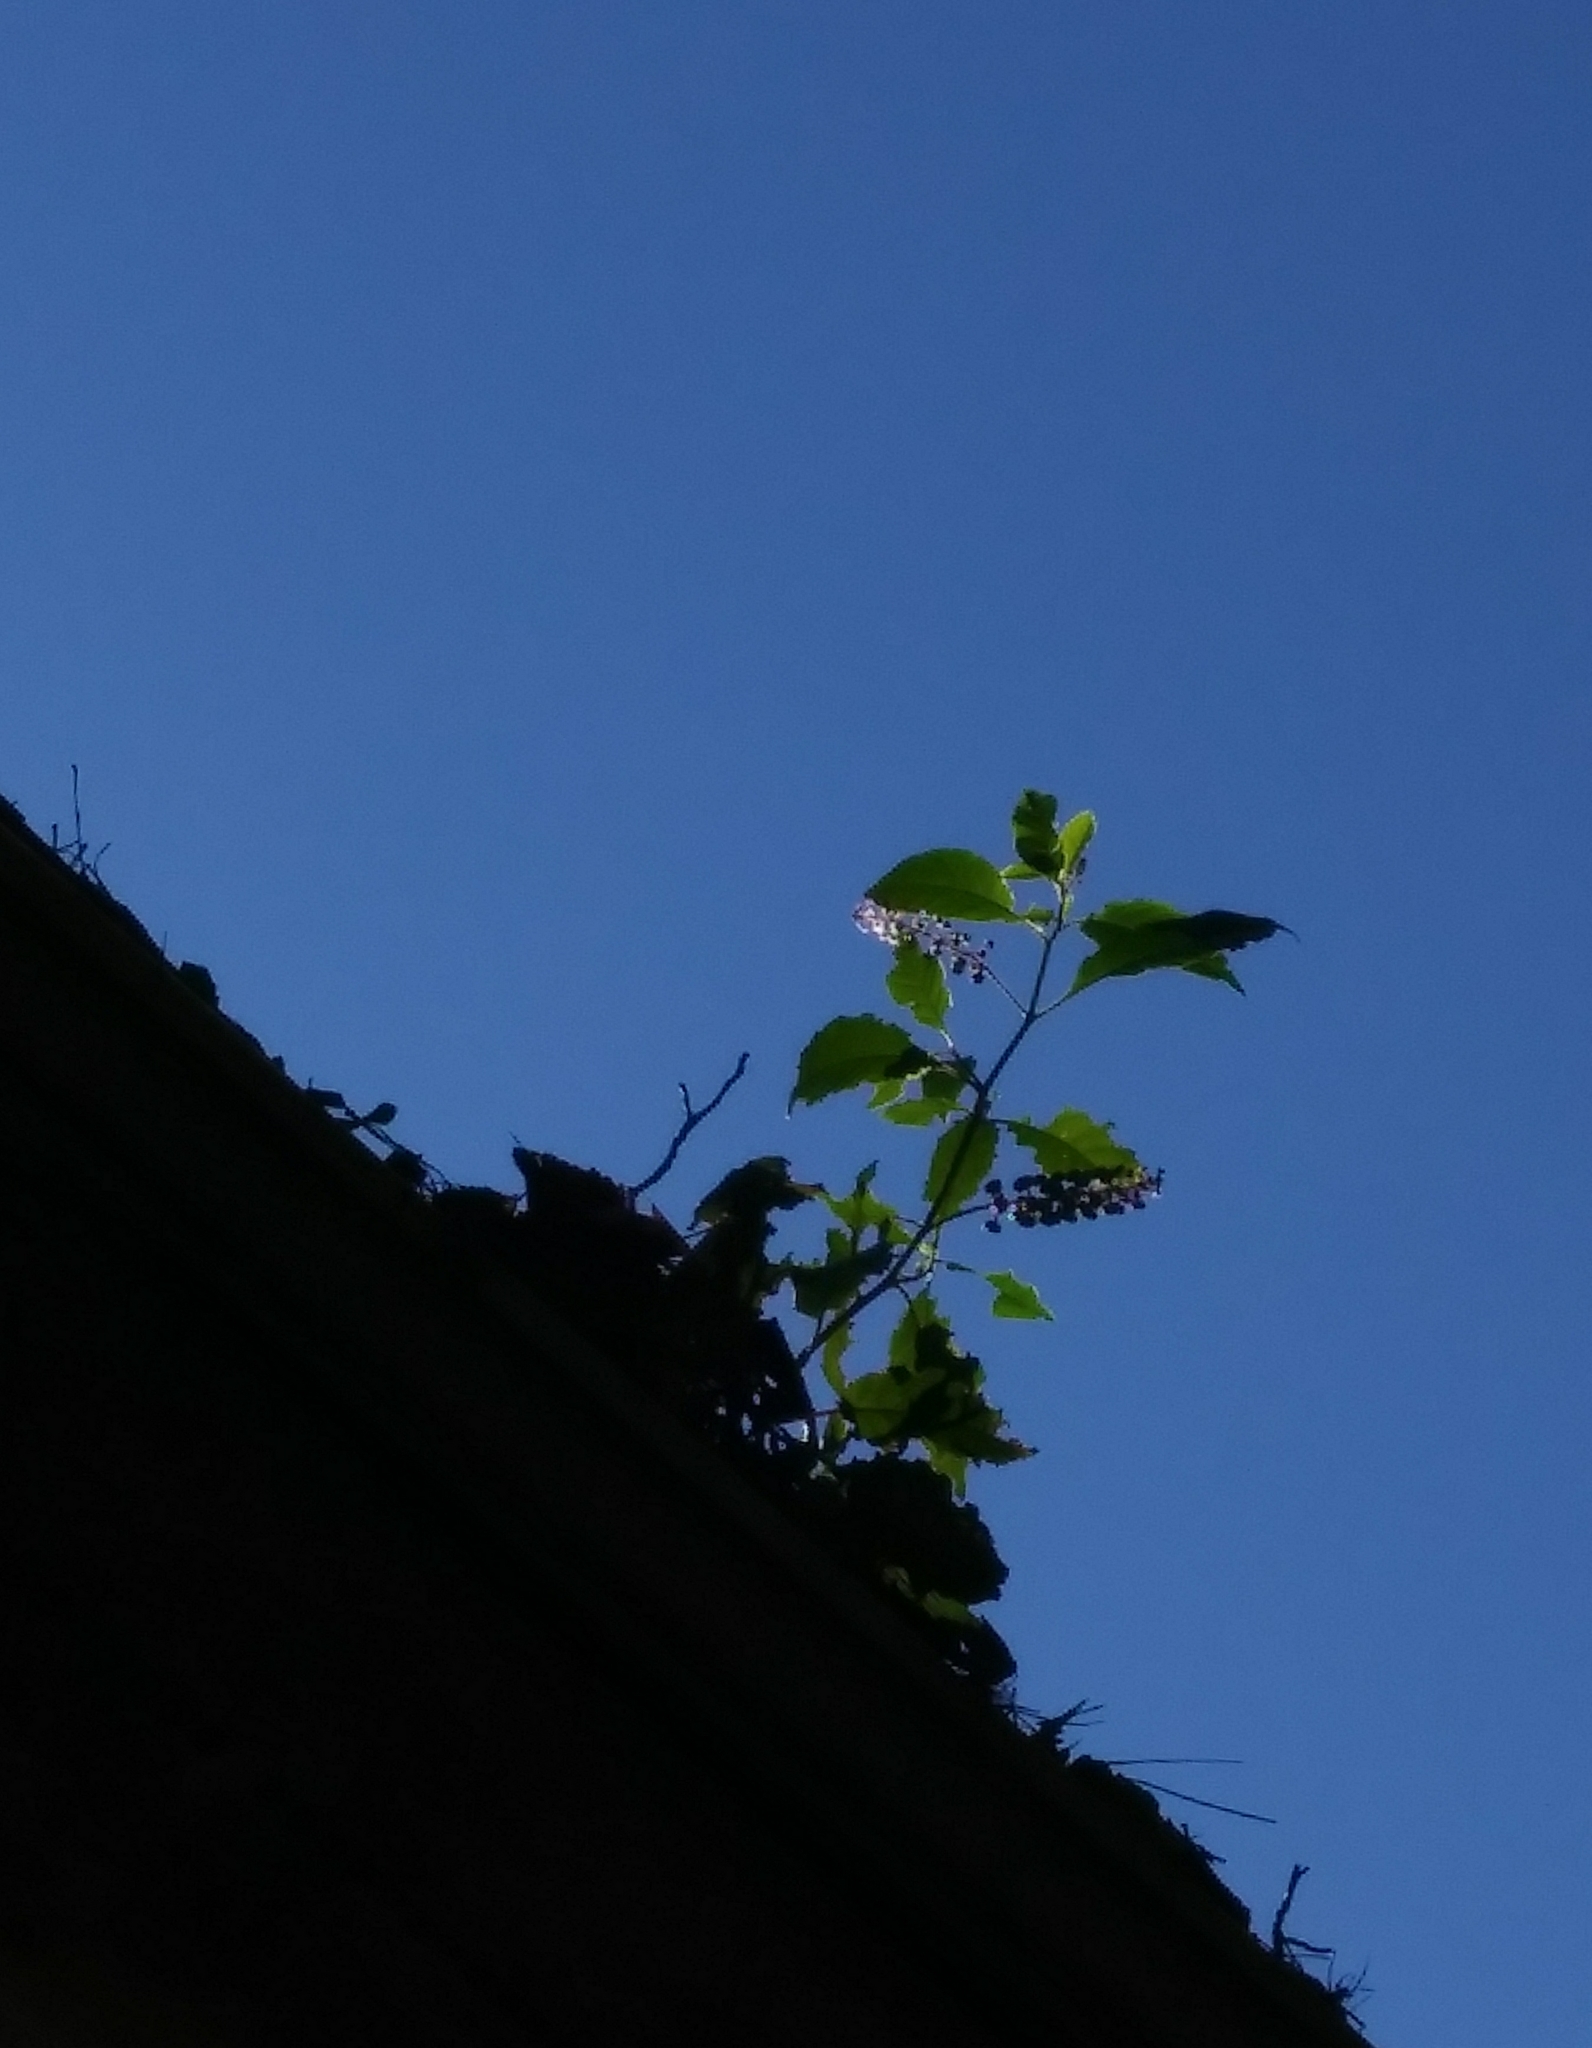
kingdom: Plantae
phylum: Tracheophyta
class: Magnoliopsida
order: Caryophyllales
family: Phytolaccaceae
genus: Phytolacca
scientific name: Phytolacca americana
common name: American pokeweed
